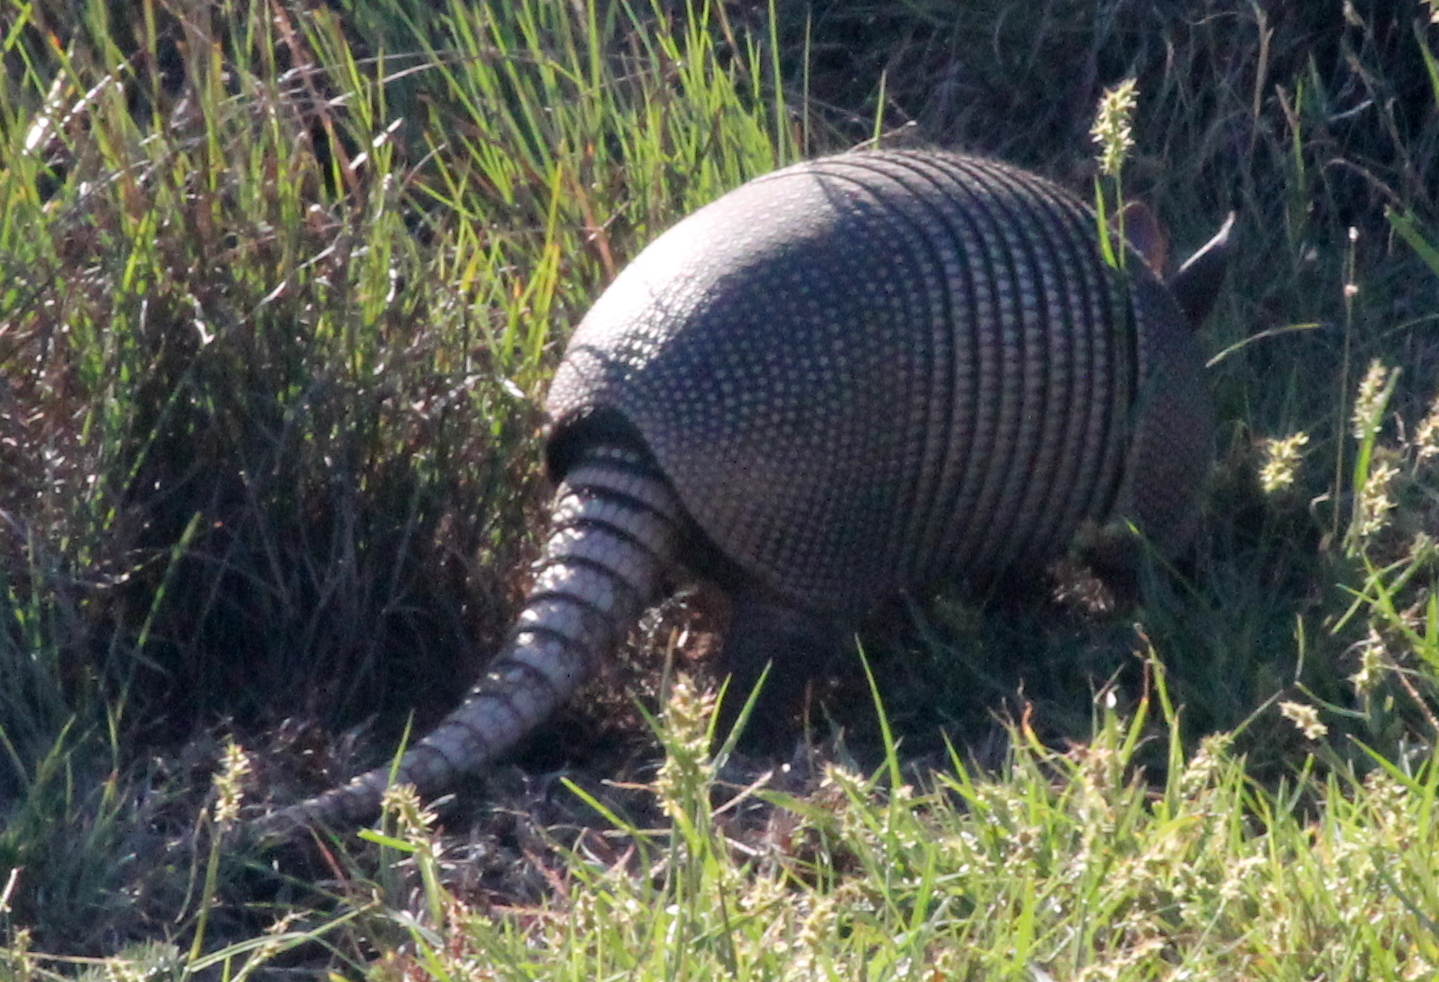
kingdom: Animalia
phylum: Chordata
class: Mammalia
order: Cingulata
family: Dasypodidae
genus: Dasypus
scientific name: Dasypus novemcinctus
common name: Nine-banded armadillo
